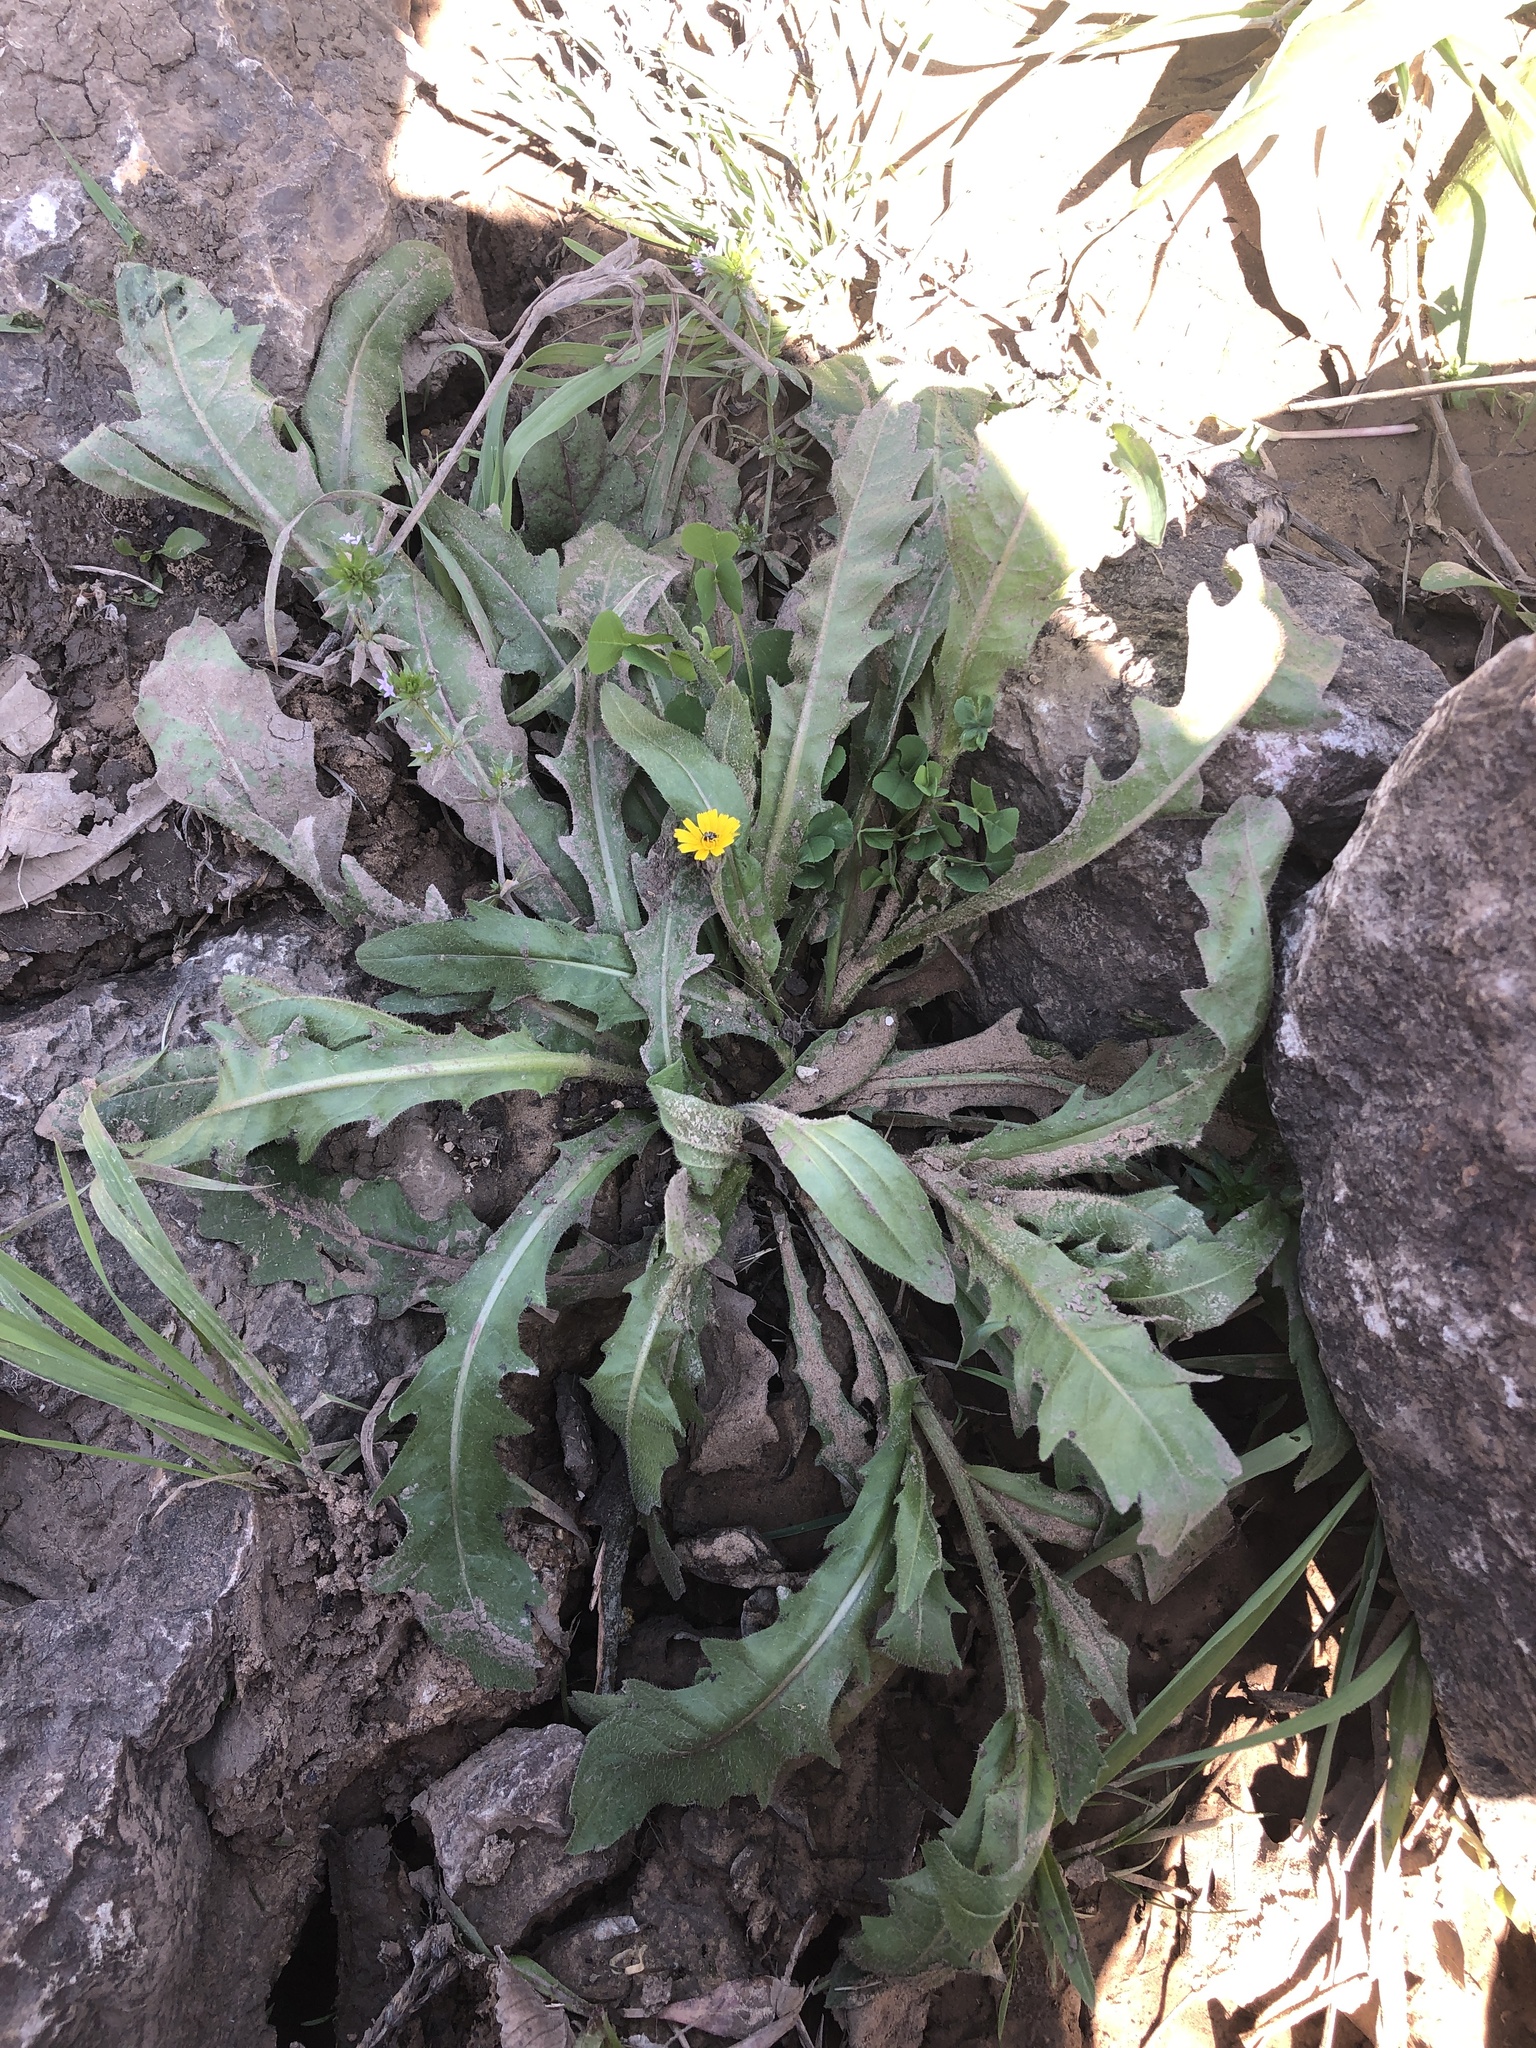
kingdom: Plantae
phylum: Tracheophyta
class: Magnoliopsida
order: Asterales
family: Asteraceae
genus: Hedypnois
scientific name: Hedypnois rhagadioloides
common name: Cretan weed
